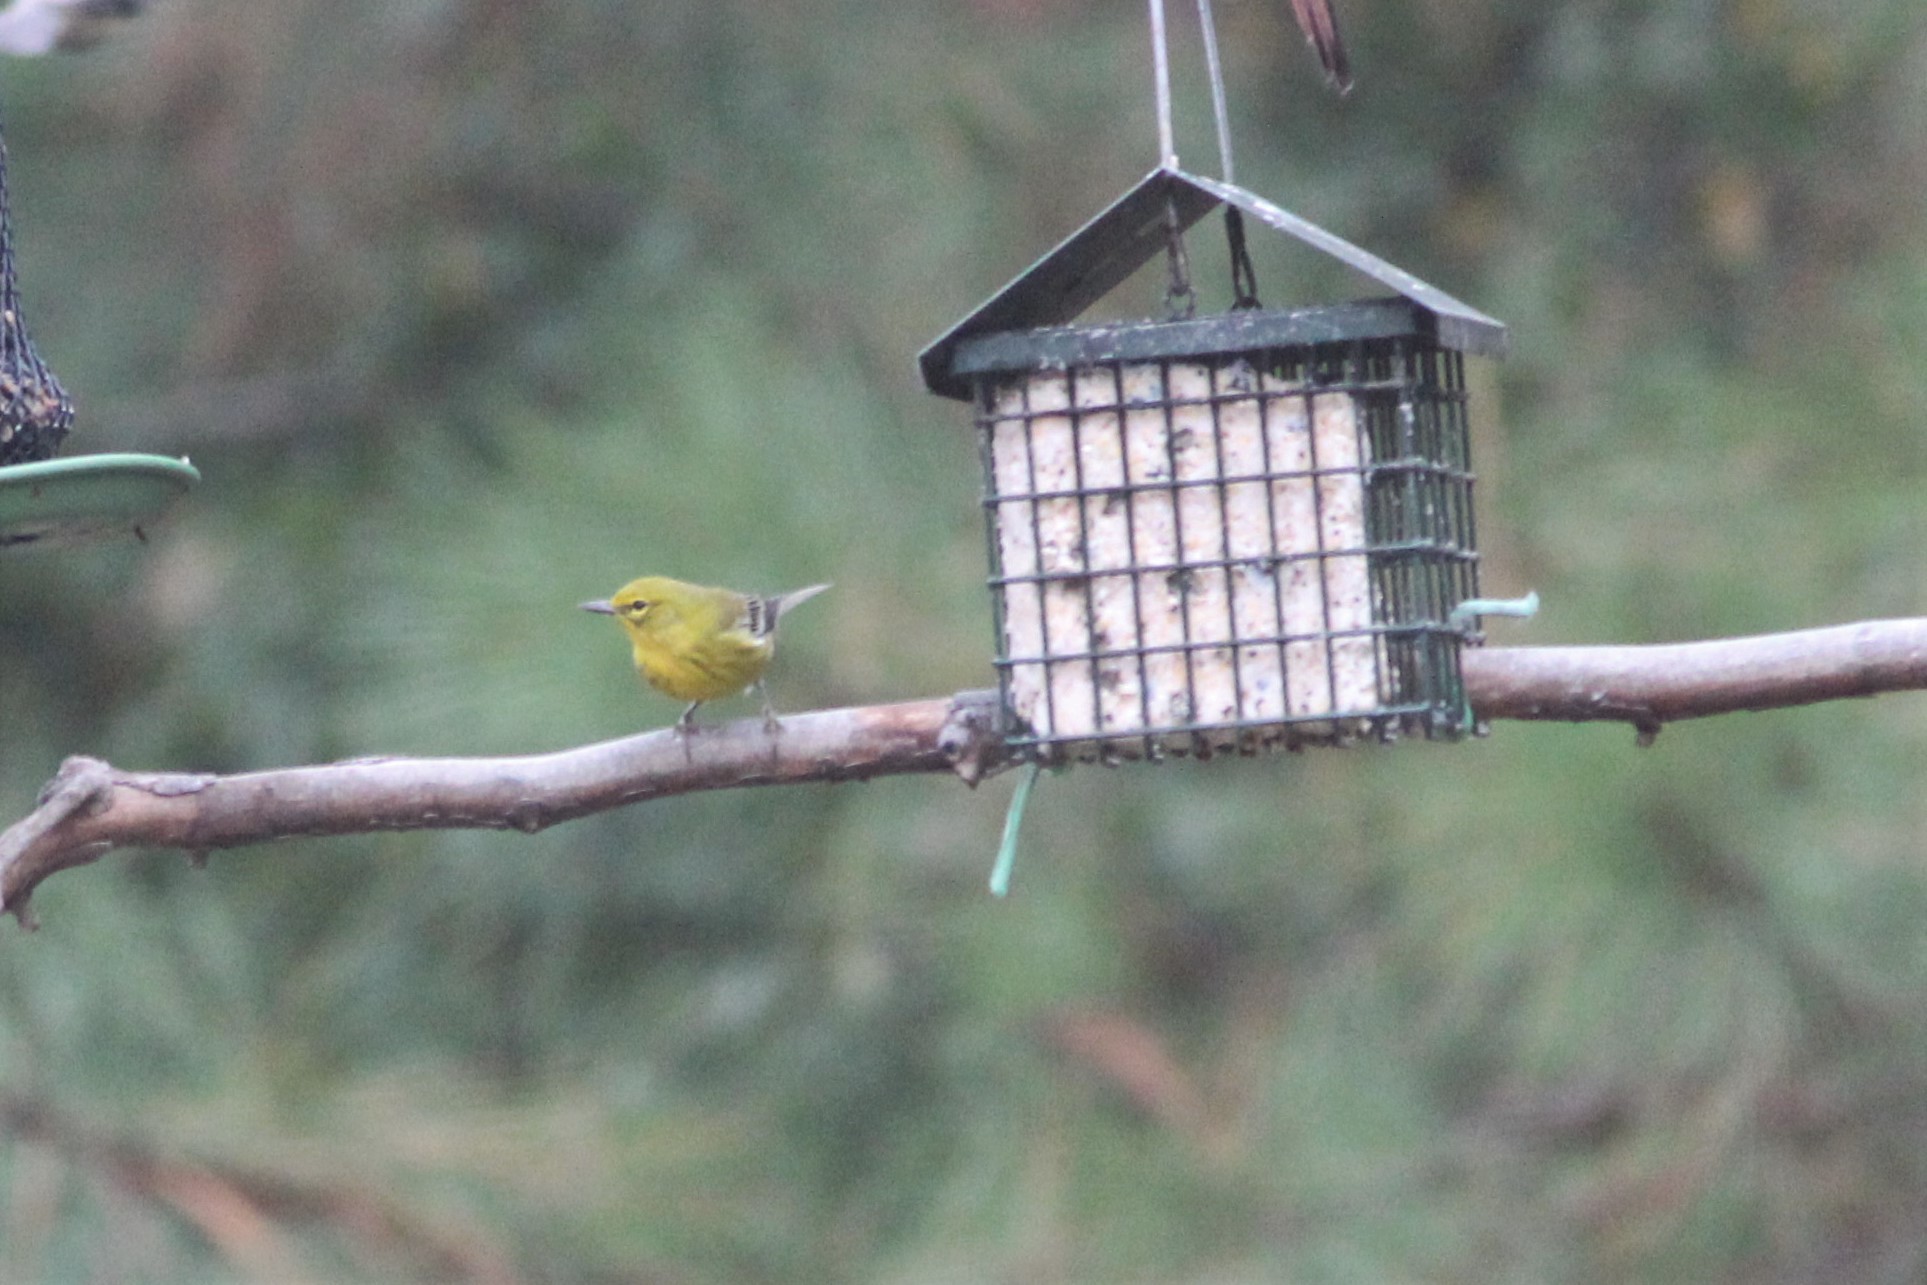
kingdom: Animalia
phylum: Chordata
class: Aves
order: Passeriformes
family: Parulidae
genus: Setophaga
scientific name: Setophaga pinus
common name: Pine warbler
